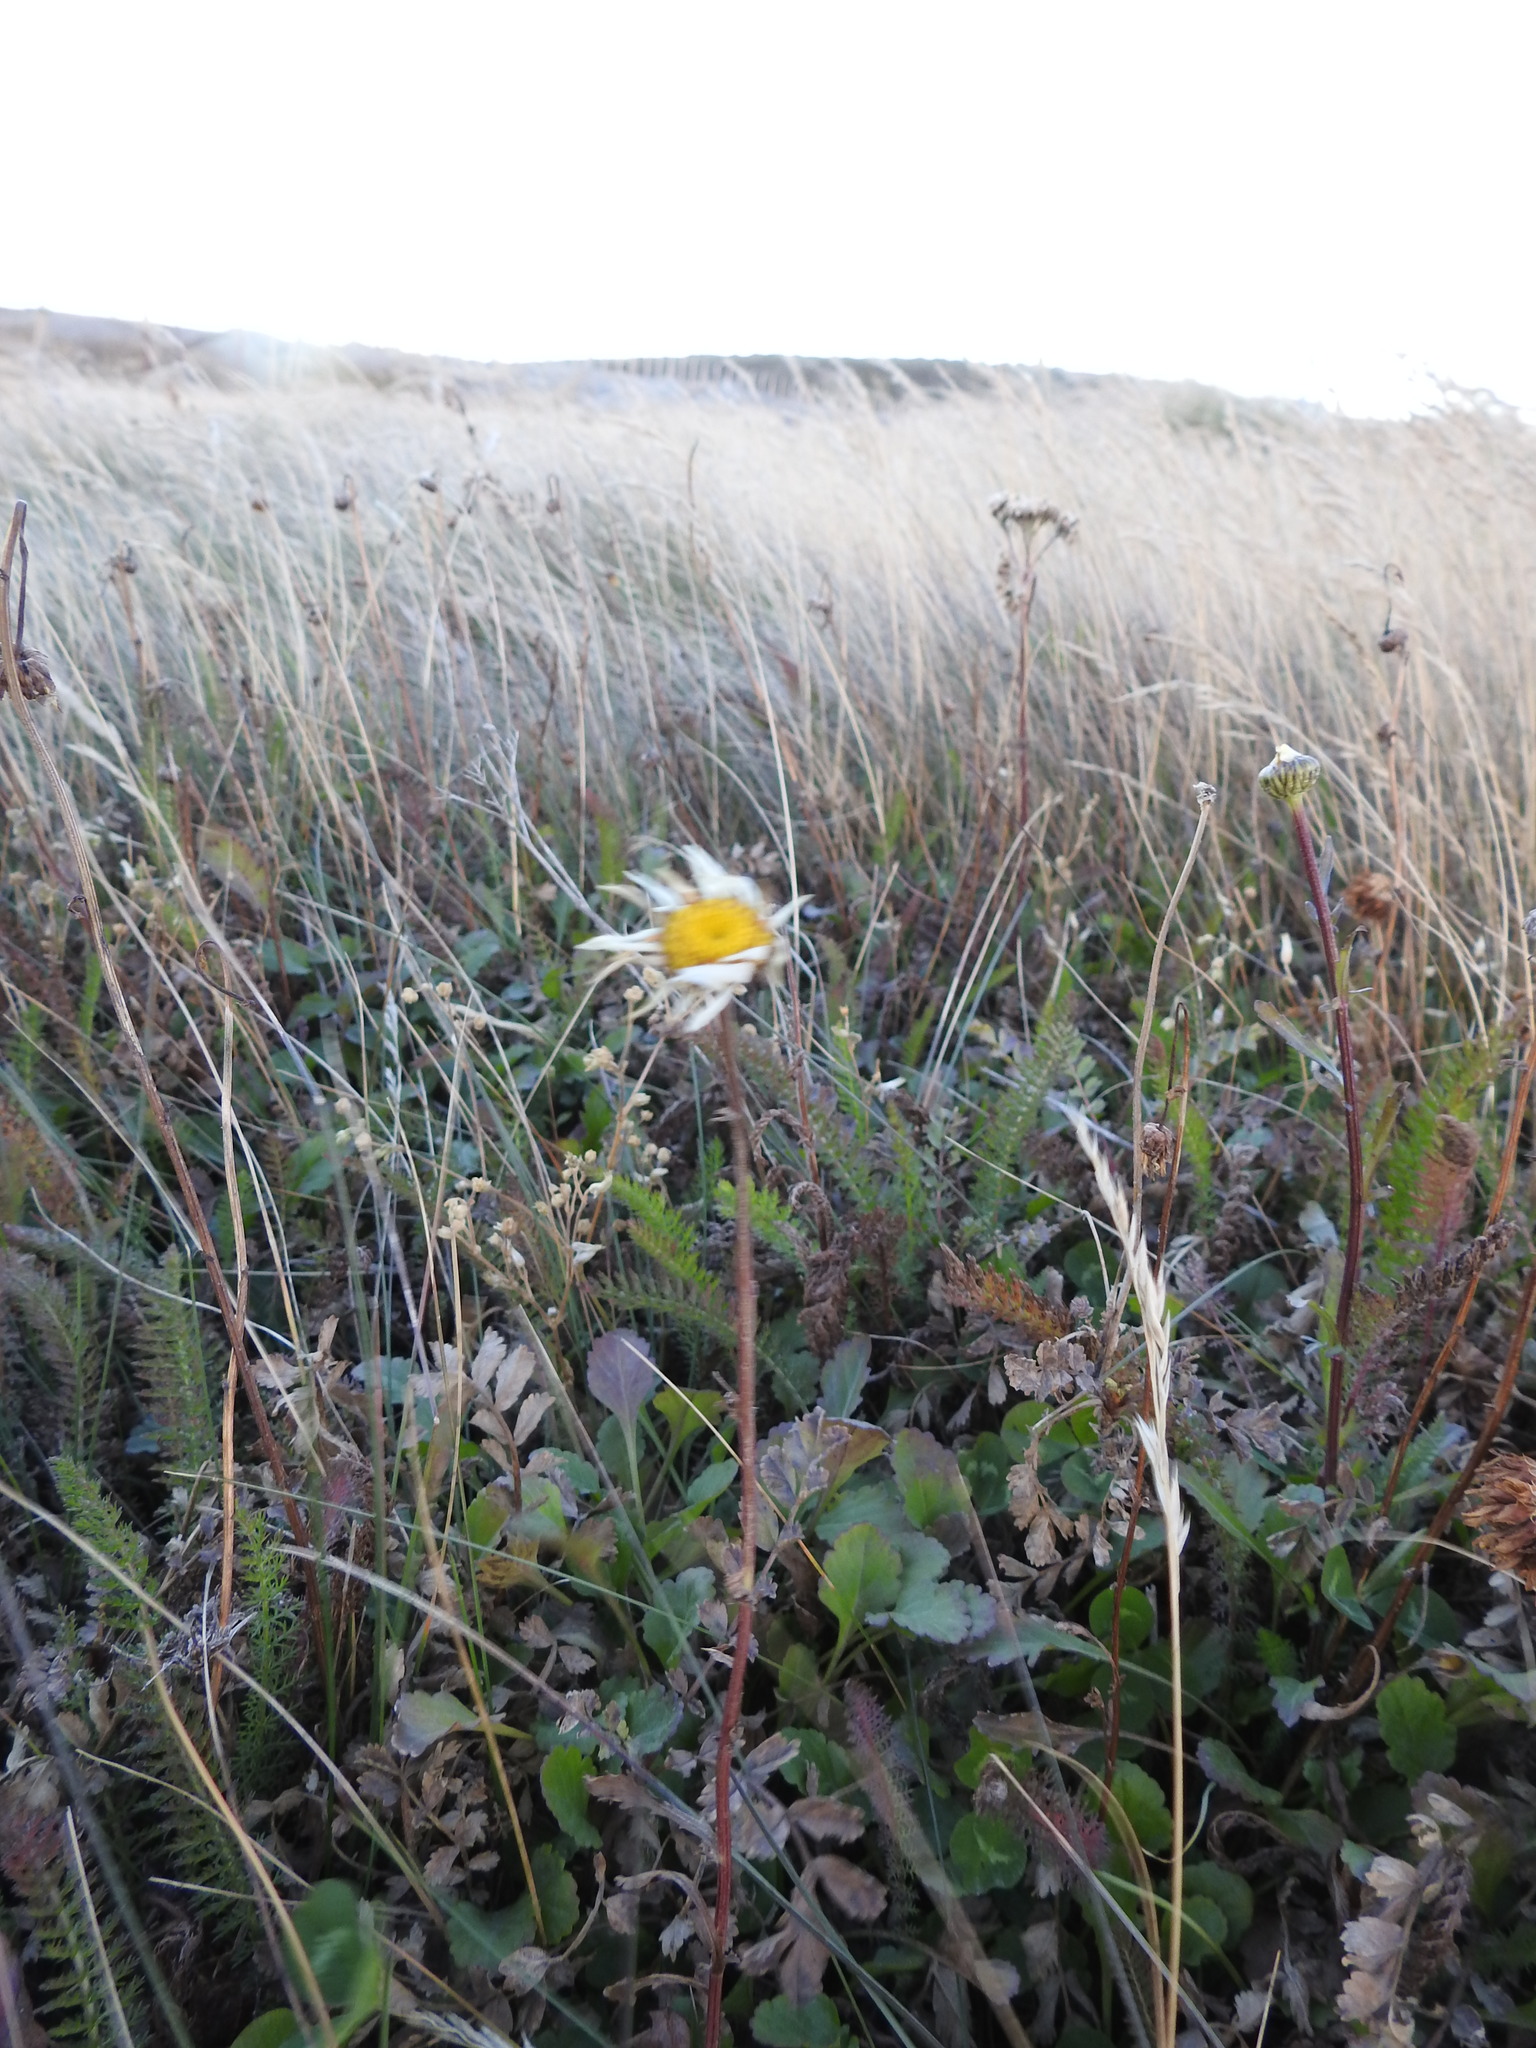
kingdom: Plantae
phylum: Tracheophyta
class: Magnoliopsida
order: Asterales
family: Asteraceae
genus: Leucanthemum
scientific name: Leucanthemum vulgare
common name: Oxeye daisy
